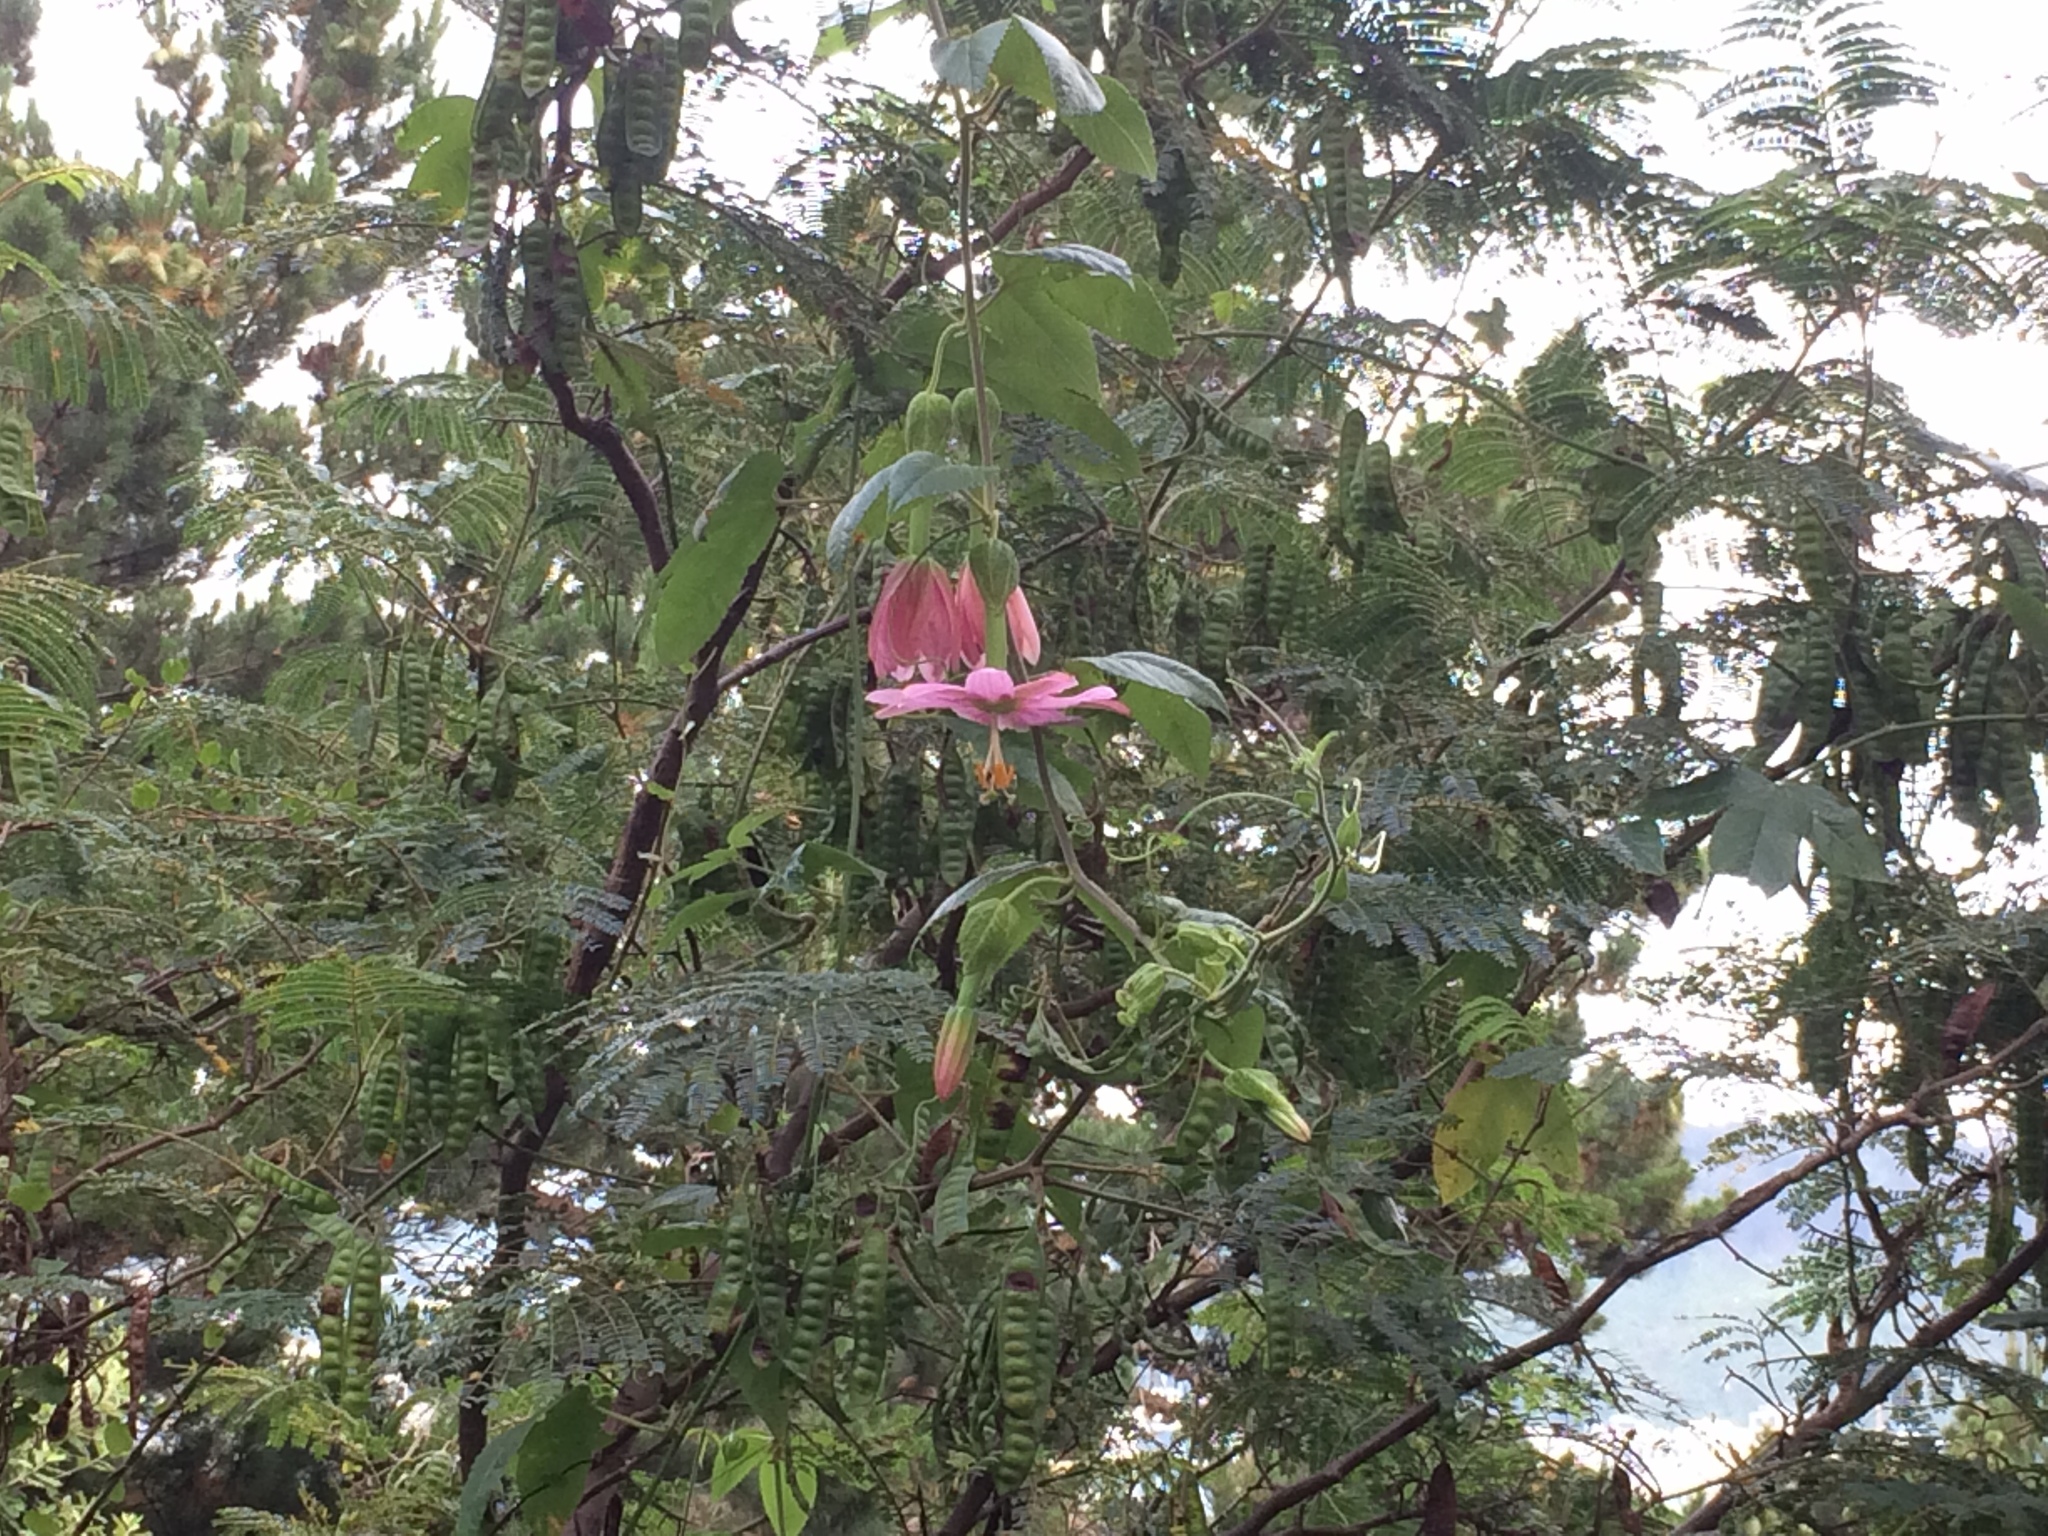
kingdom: Plantae
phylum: Tracheophyta
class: Magnoliopsida
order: Malpighiales
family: Passifloraceae
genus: Passiflora
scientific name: Passiflora tarminiana
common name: Banana poka
